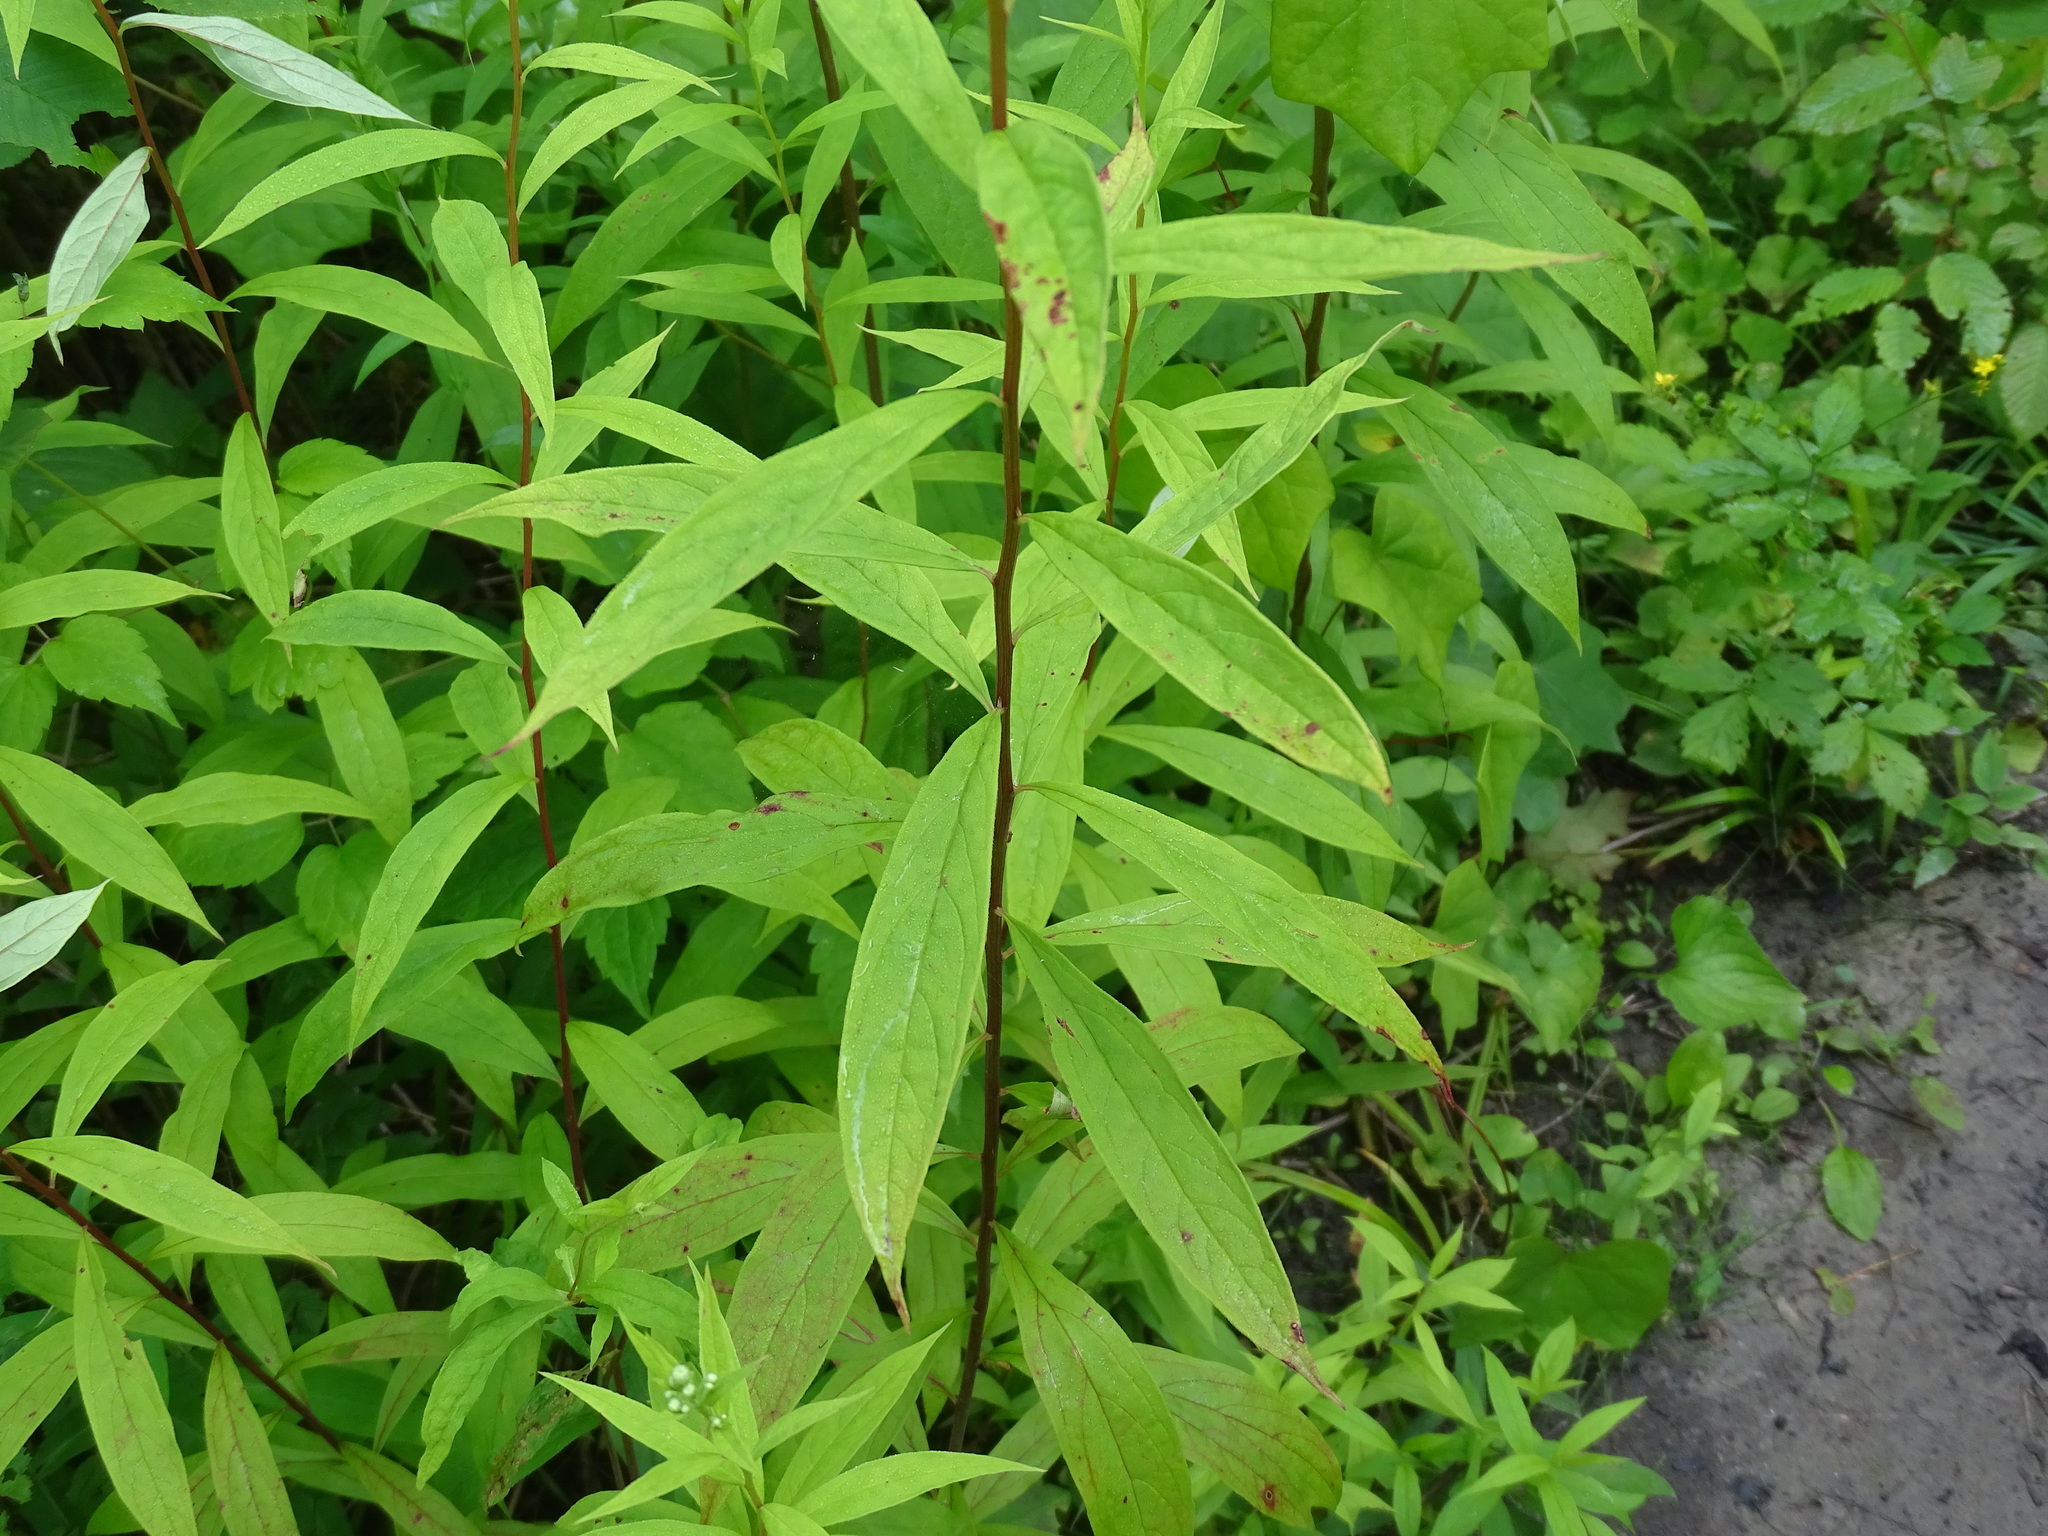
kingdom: Plantae
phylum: Tracheophyta
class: Magnoliopsida
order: Asterales
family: Asteraceae
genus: Doellingeria
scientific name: Doellingeria umbellata
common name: Flat-top white aster
